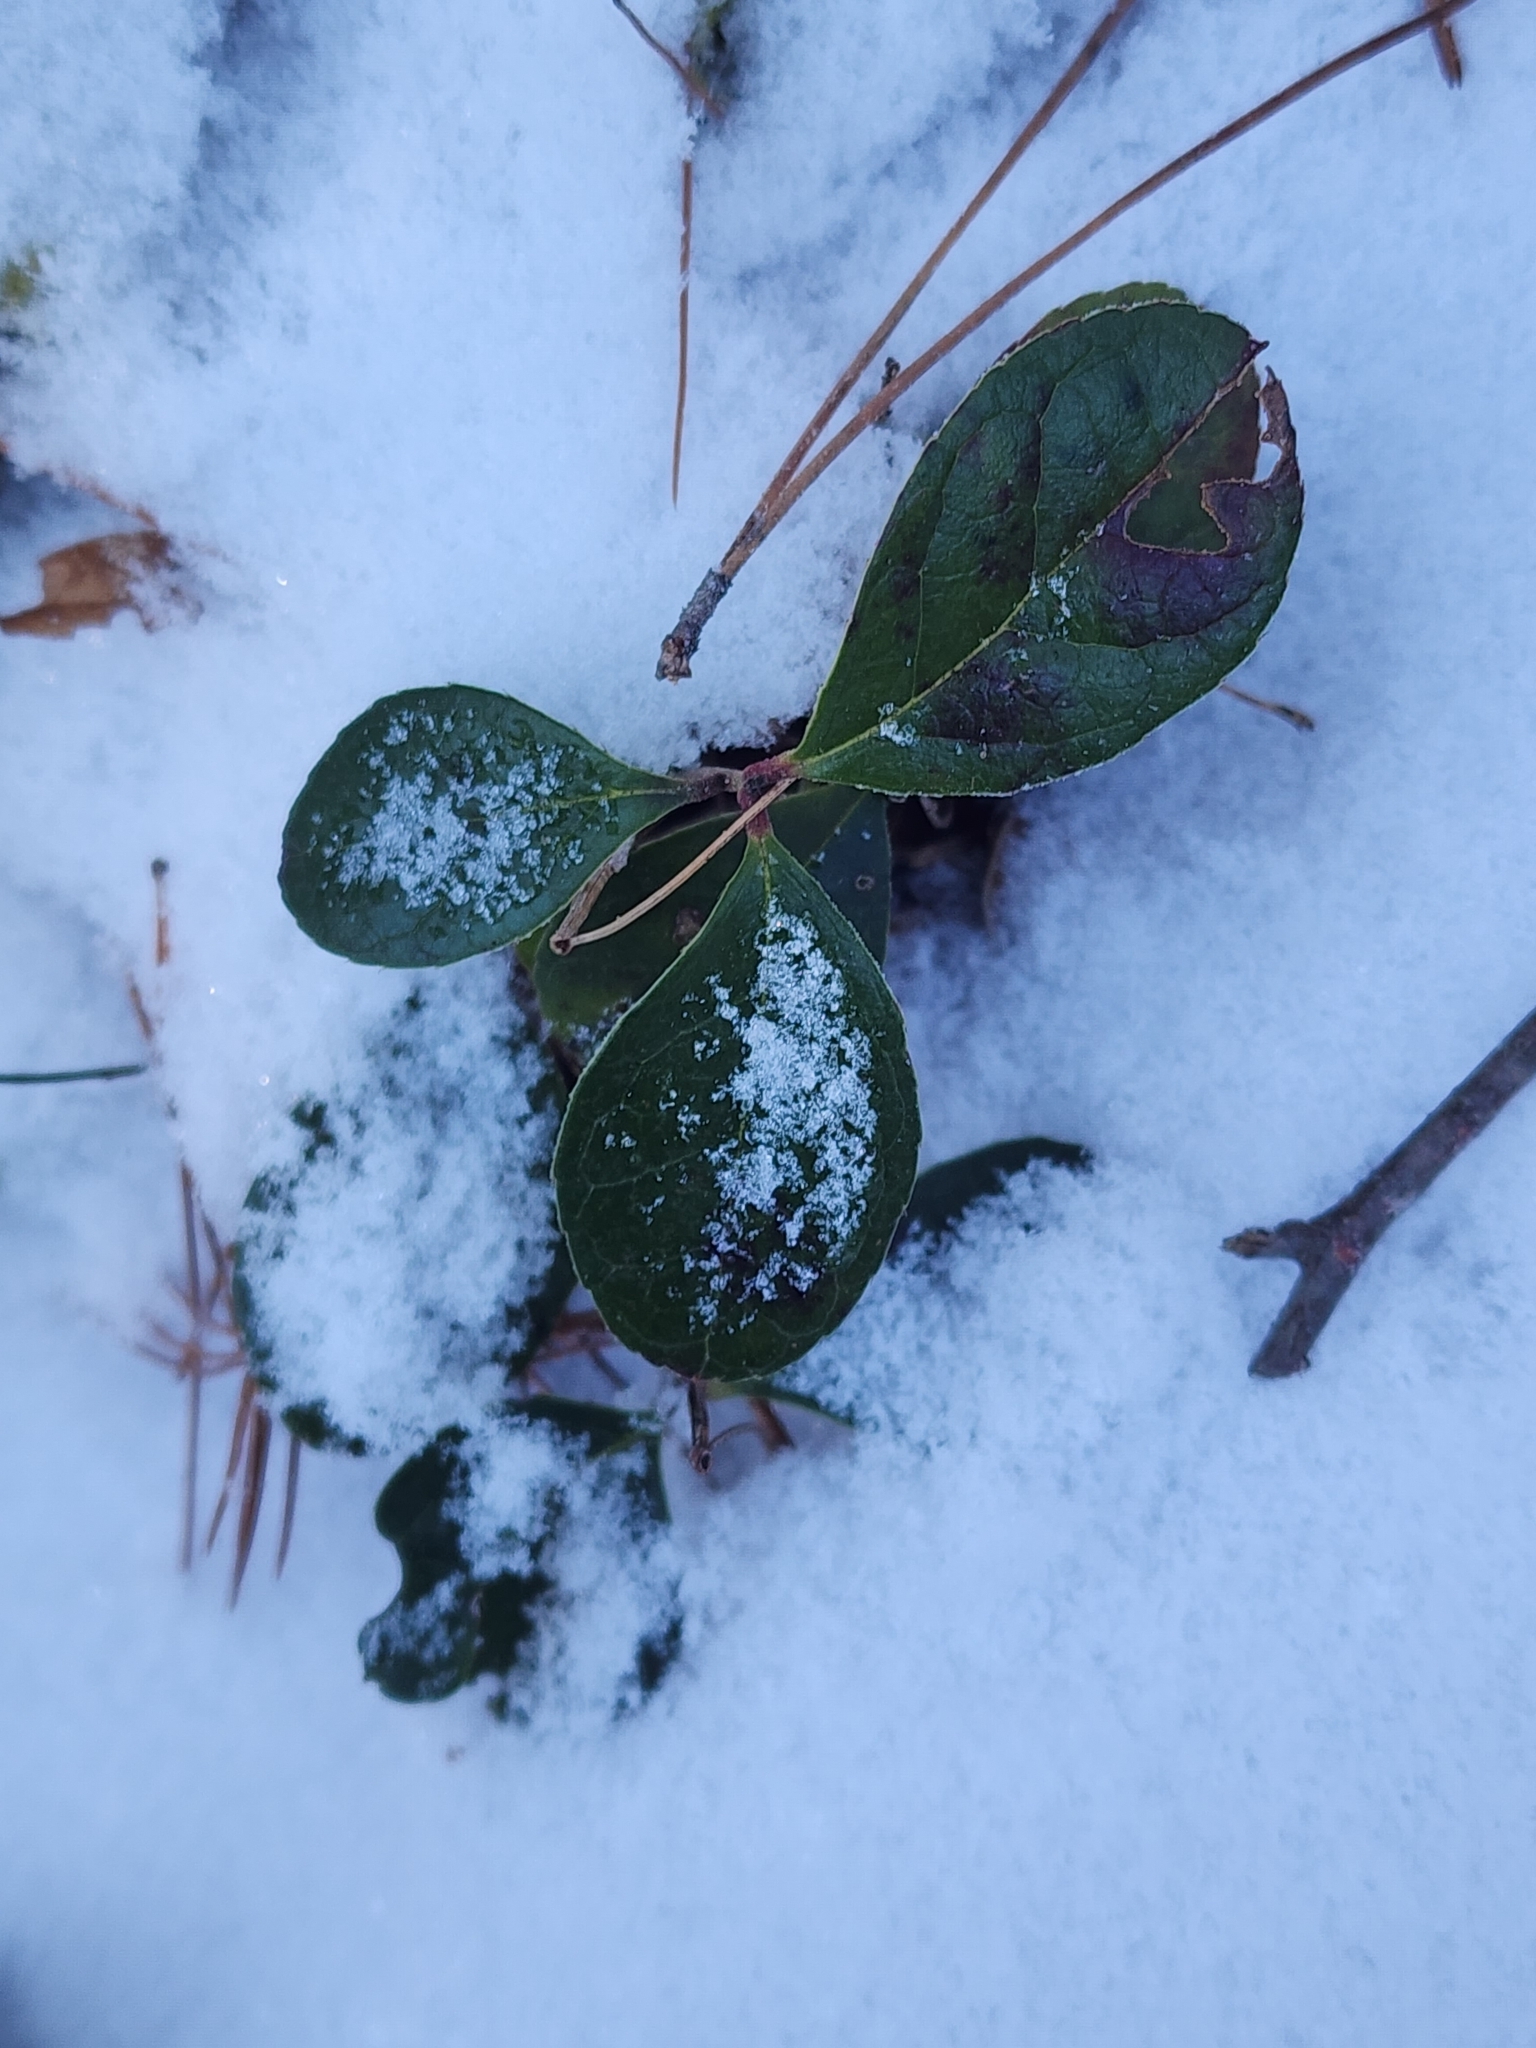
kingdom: Plantae
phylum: Tracheophyta
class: Magnoliopsida
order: Ericales
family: Ericaceae
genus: Gaultheria
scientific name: Gaultheria procumbens
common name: Checkerberry
